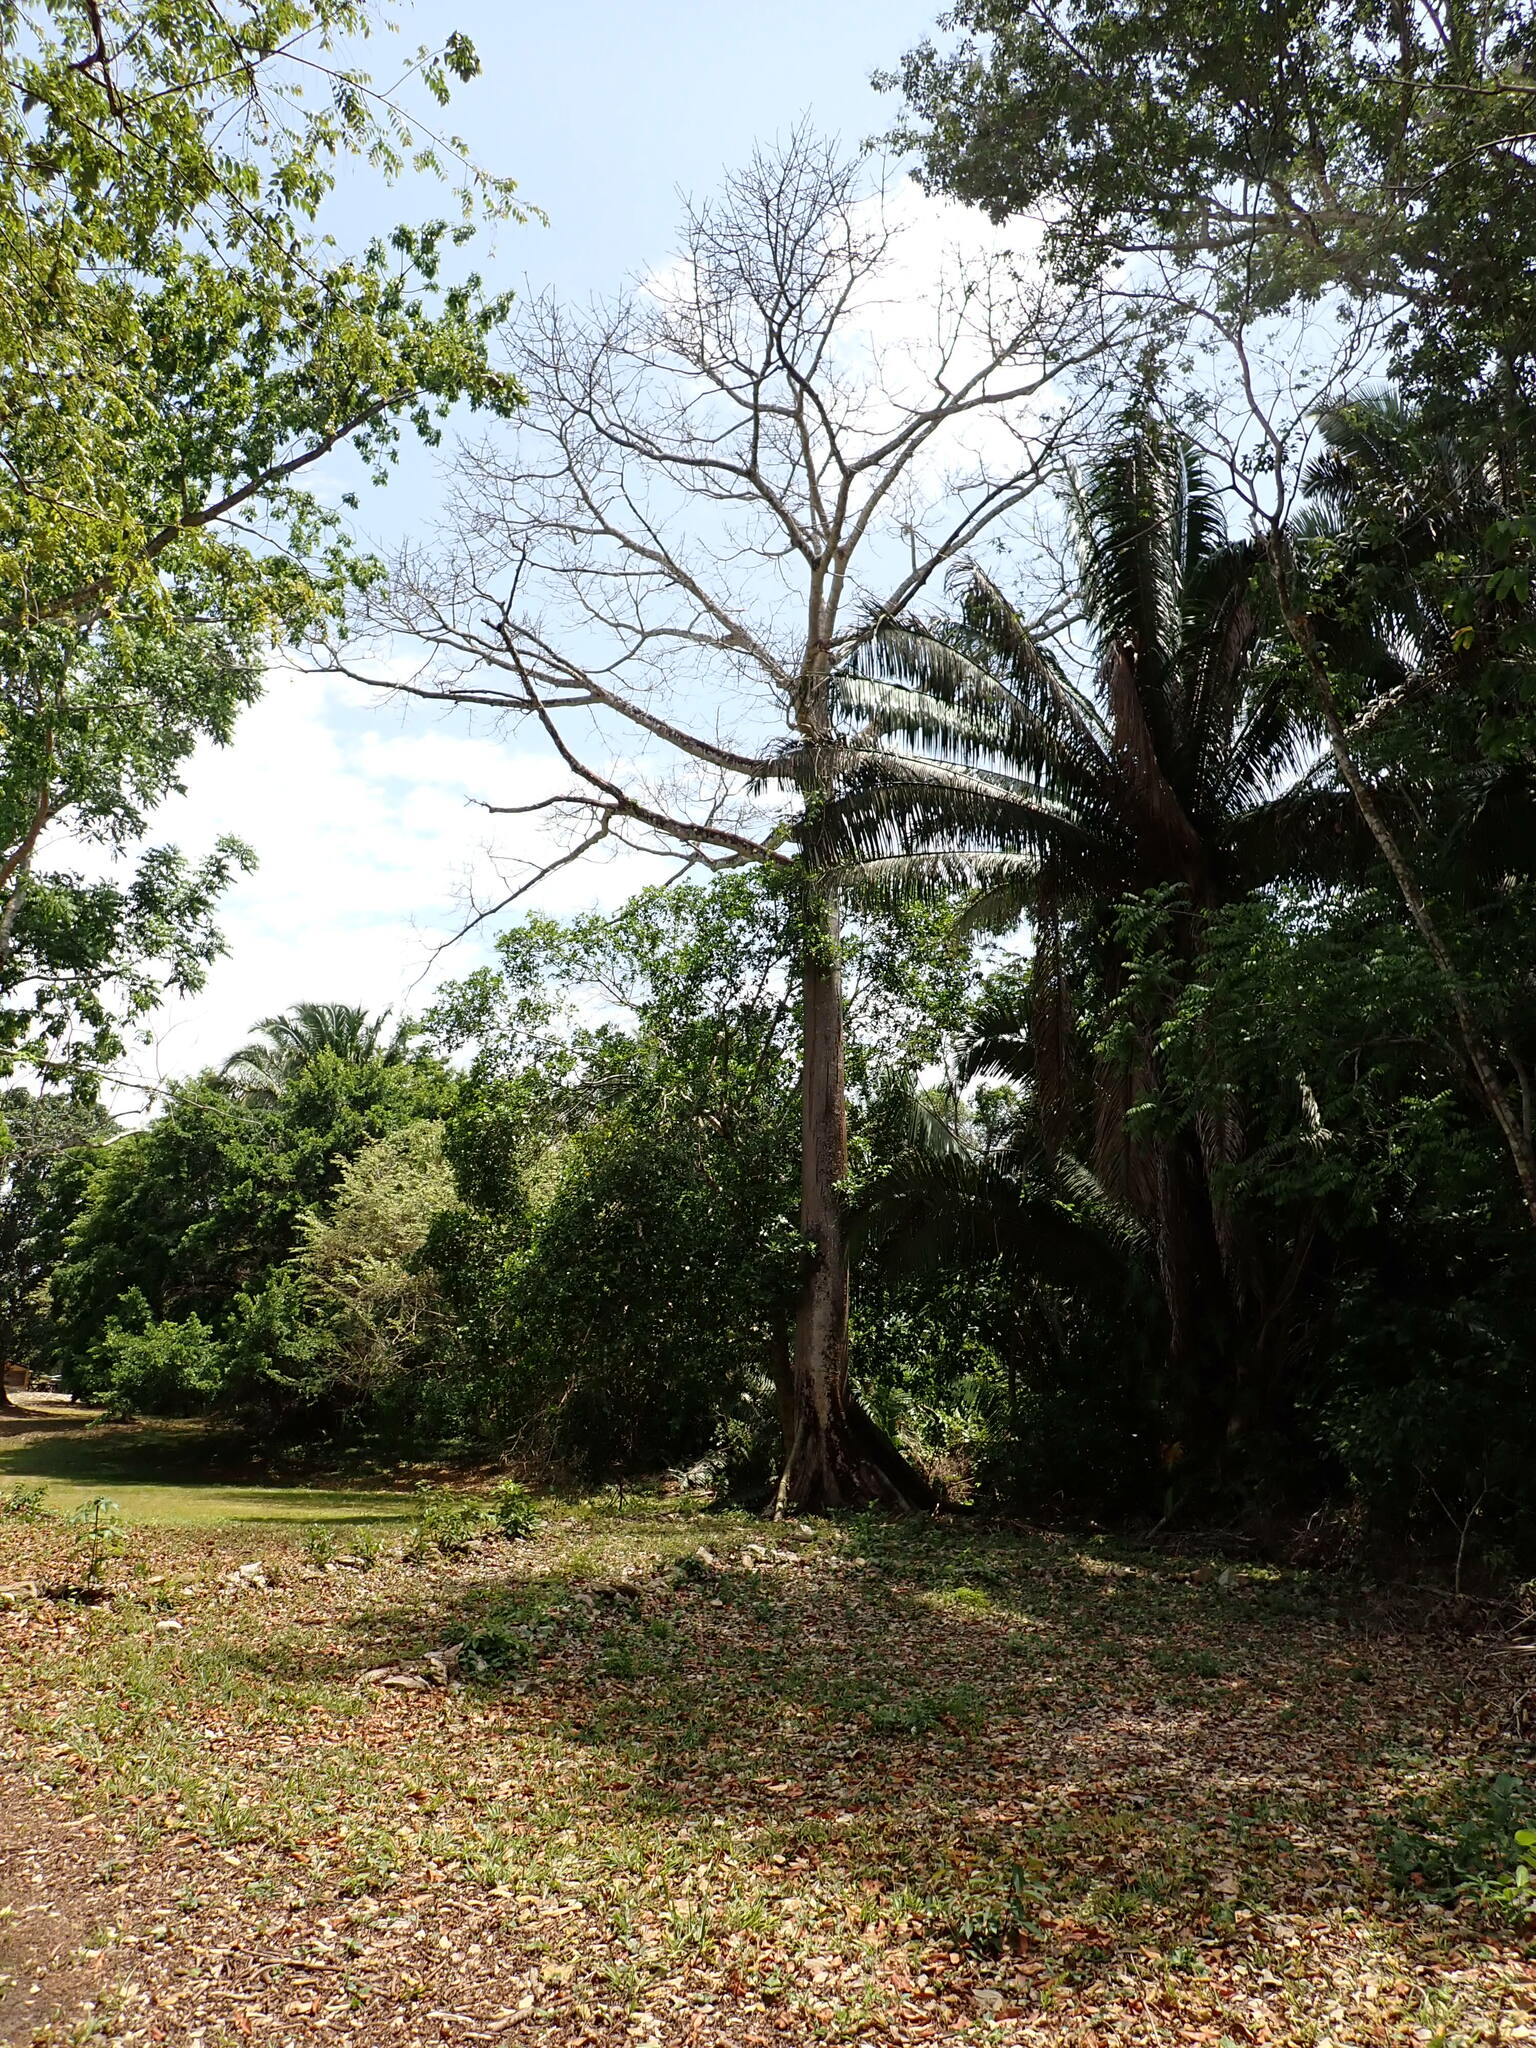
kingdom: Plantae
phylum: Tracheophyta
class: Magnoliopsida
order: Malvales
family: Malvaceae
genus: Ceiba
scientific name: Ceiba pentandra
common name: Kapok
